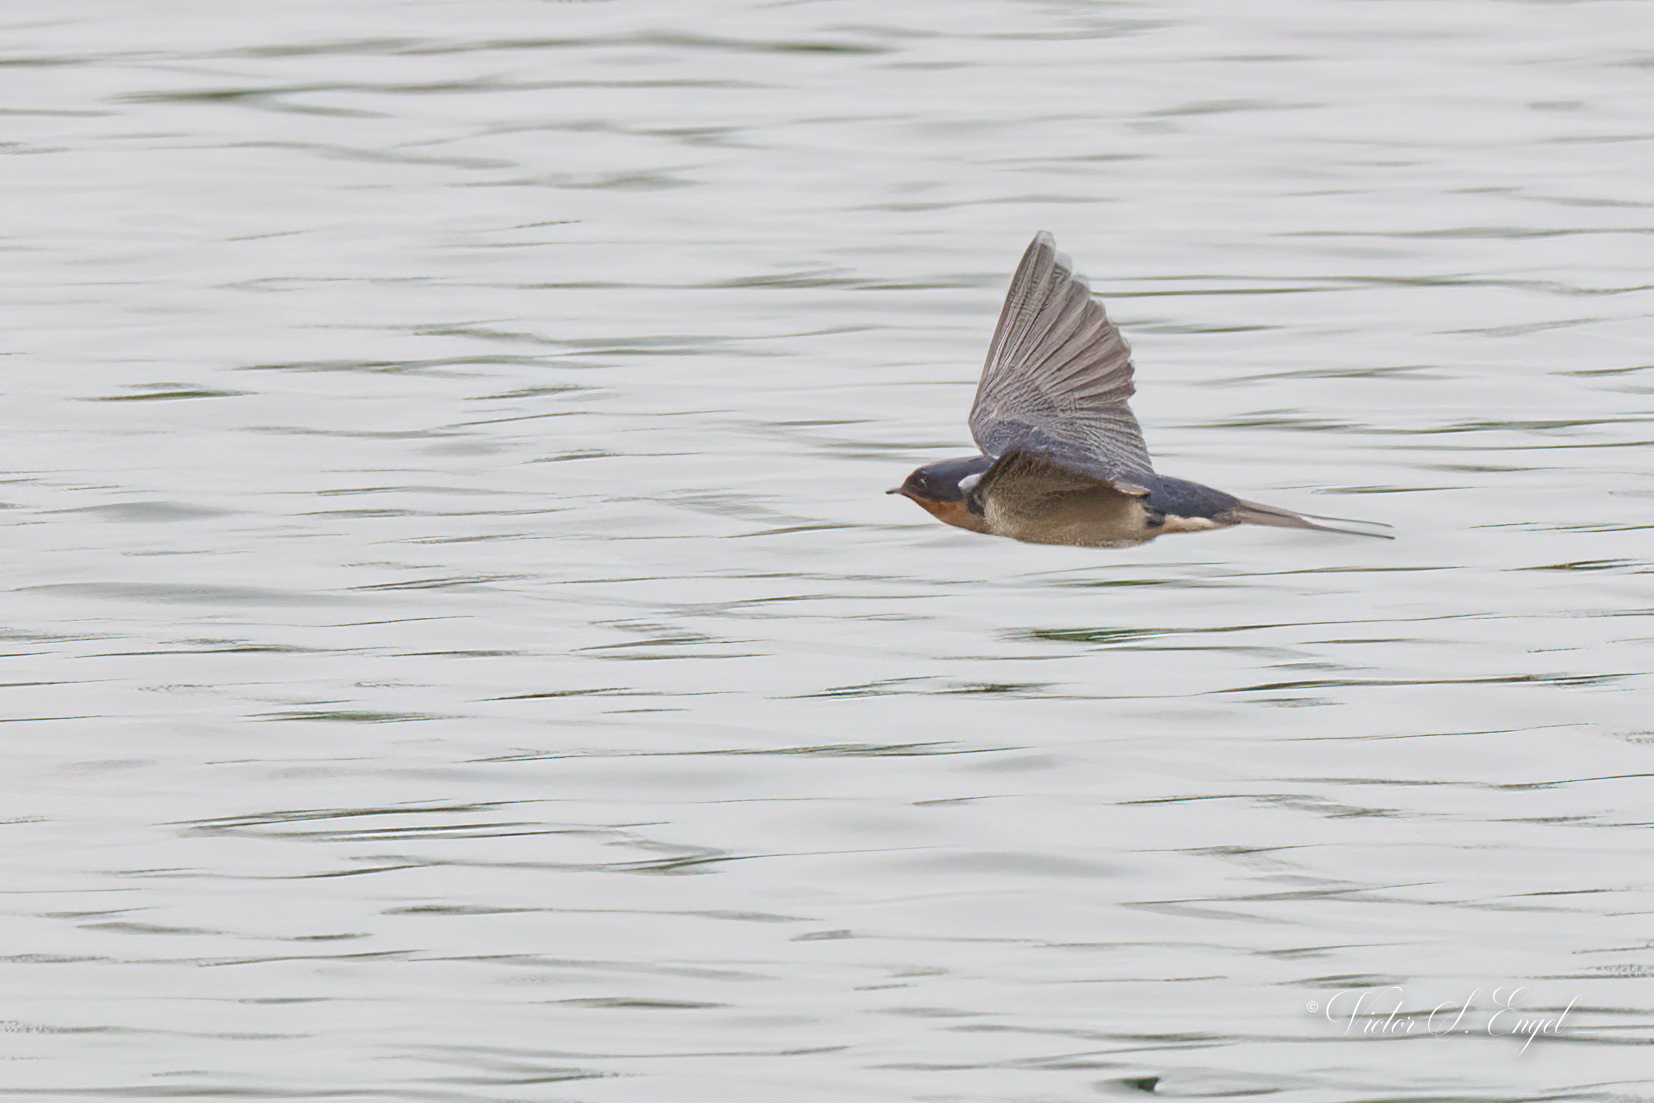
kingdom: Animalia
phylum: Chordata
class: Aves
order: Passeriformes
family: Hirundinidae
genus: Hirundo
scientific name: Hirundo rustica
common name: Barn swallow
